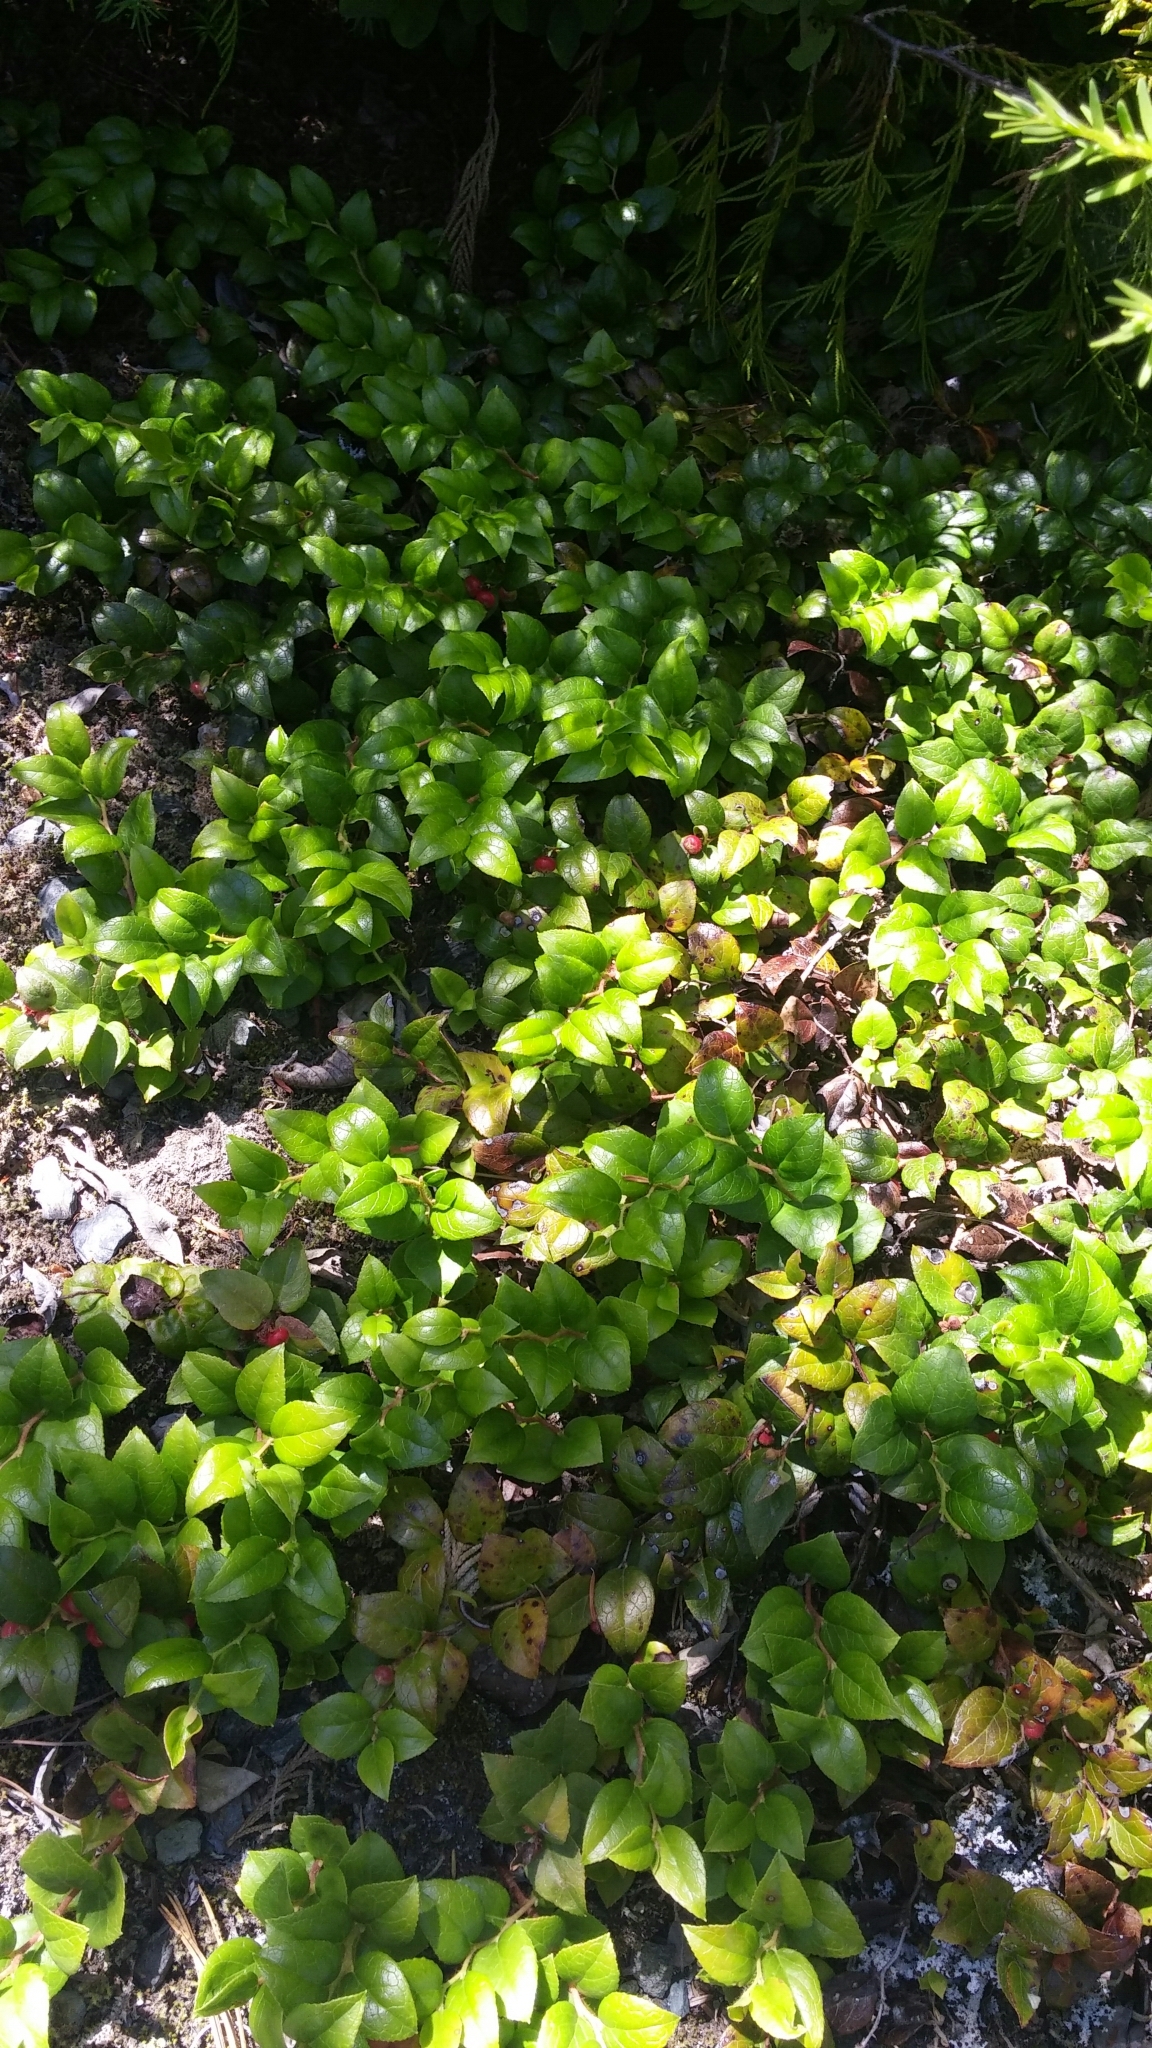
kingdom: Plantae
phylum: Tracheophyta
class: Magnoliopsida
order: Ericales
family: Ericaceae
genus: Gaultheria
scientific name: Gaultheria ovatifolia
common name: Oregon wintergreen
